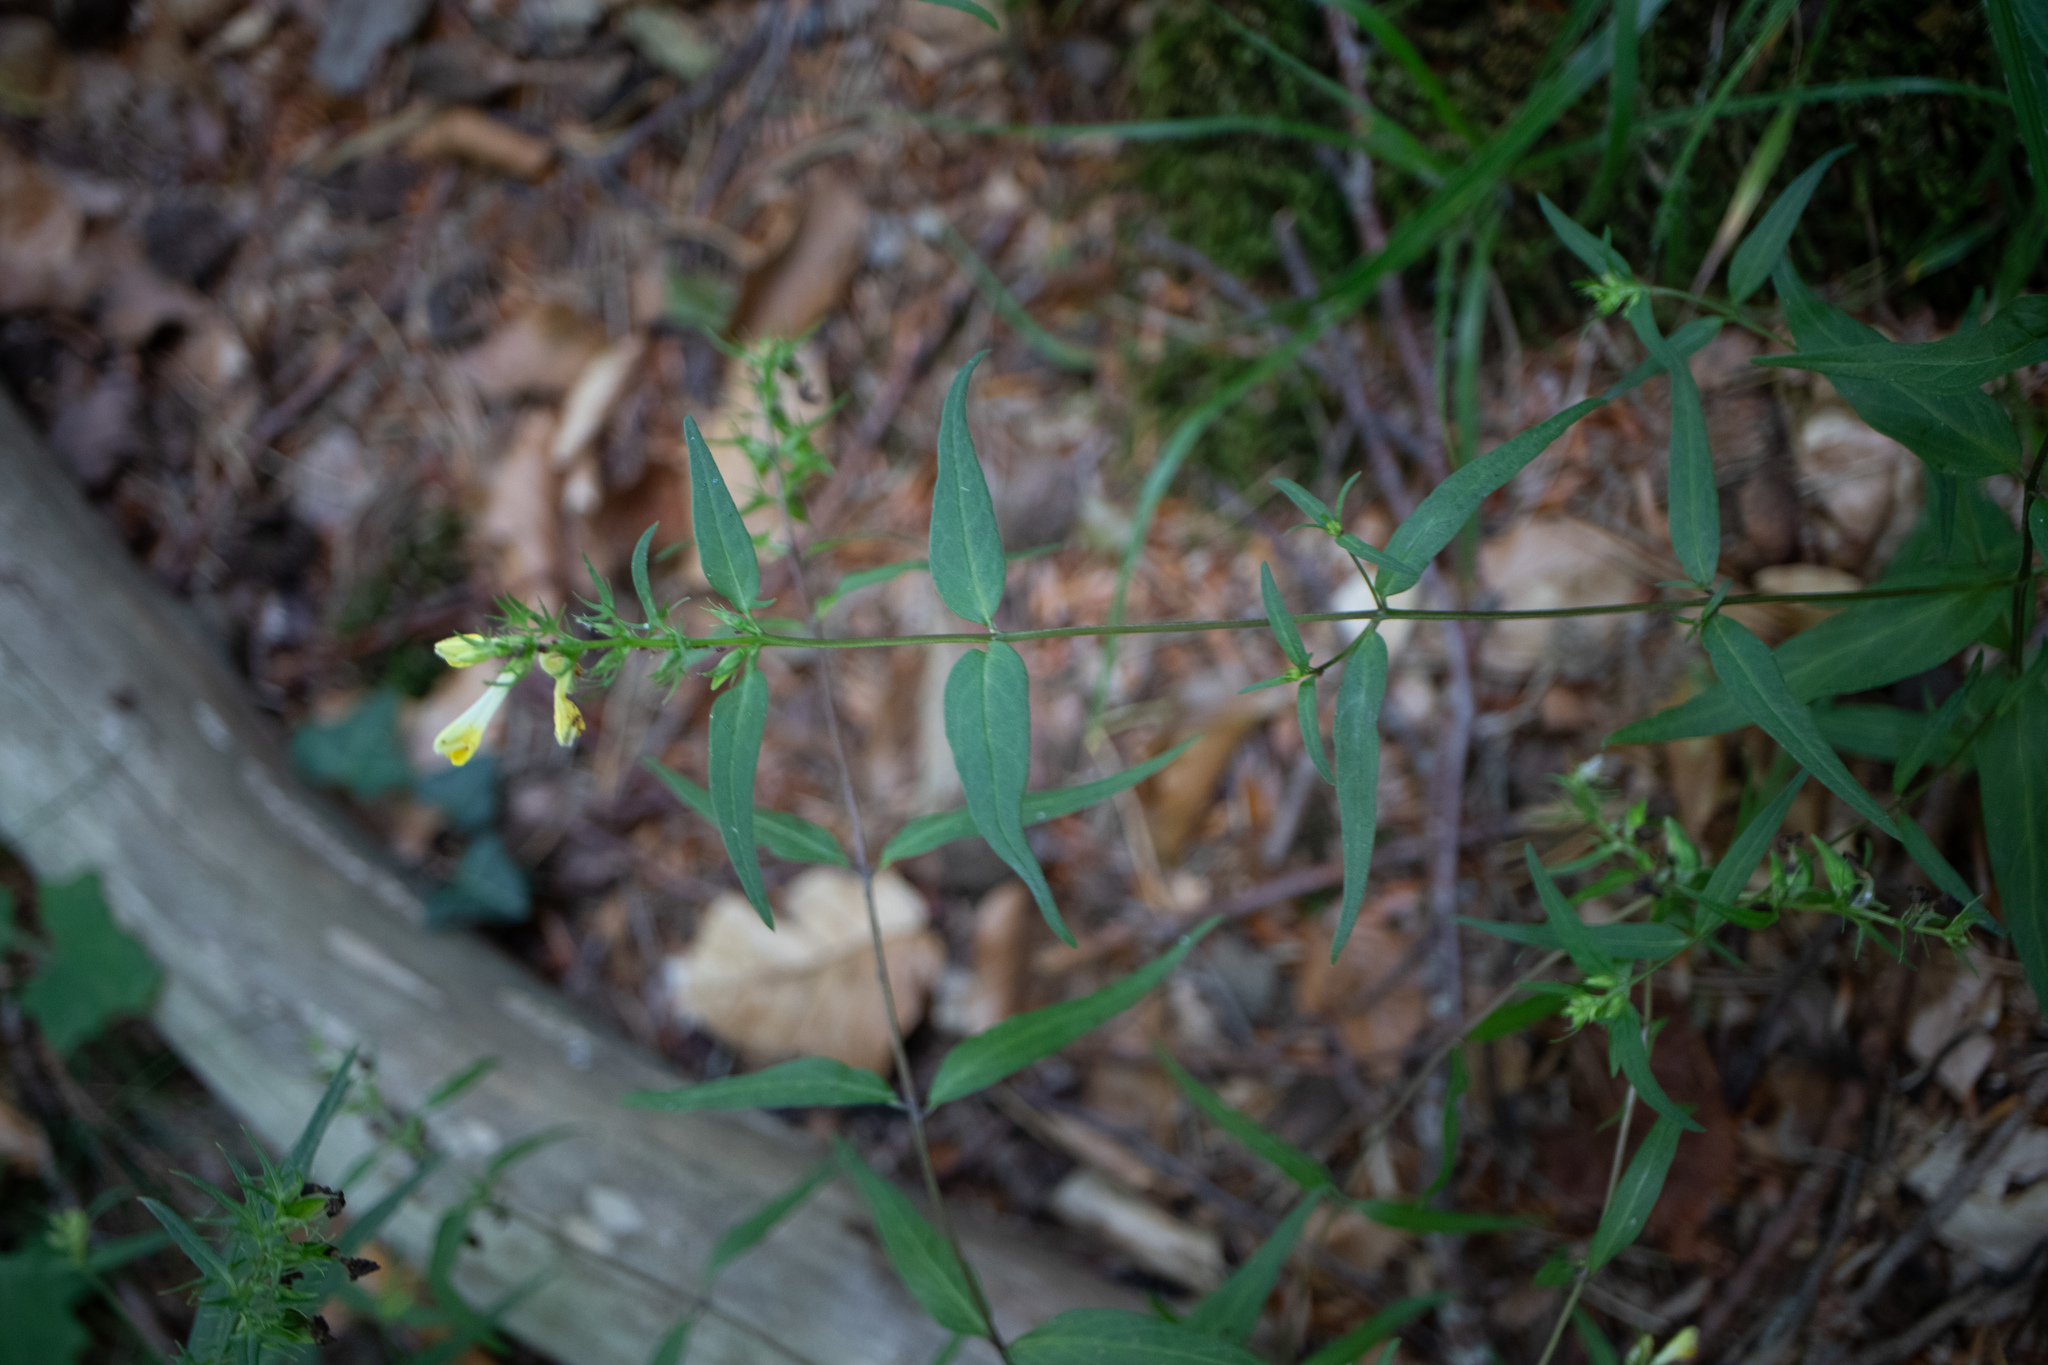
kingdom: Plantae
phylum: Tracheophyta
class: Magnoliopsida
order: Lamiales
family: Orobanchaceae
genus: Melampyrum
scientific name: Melampyrum pratense
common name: Common cow-wheat
